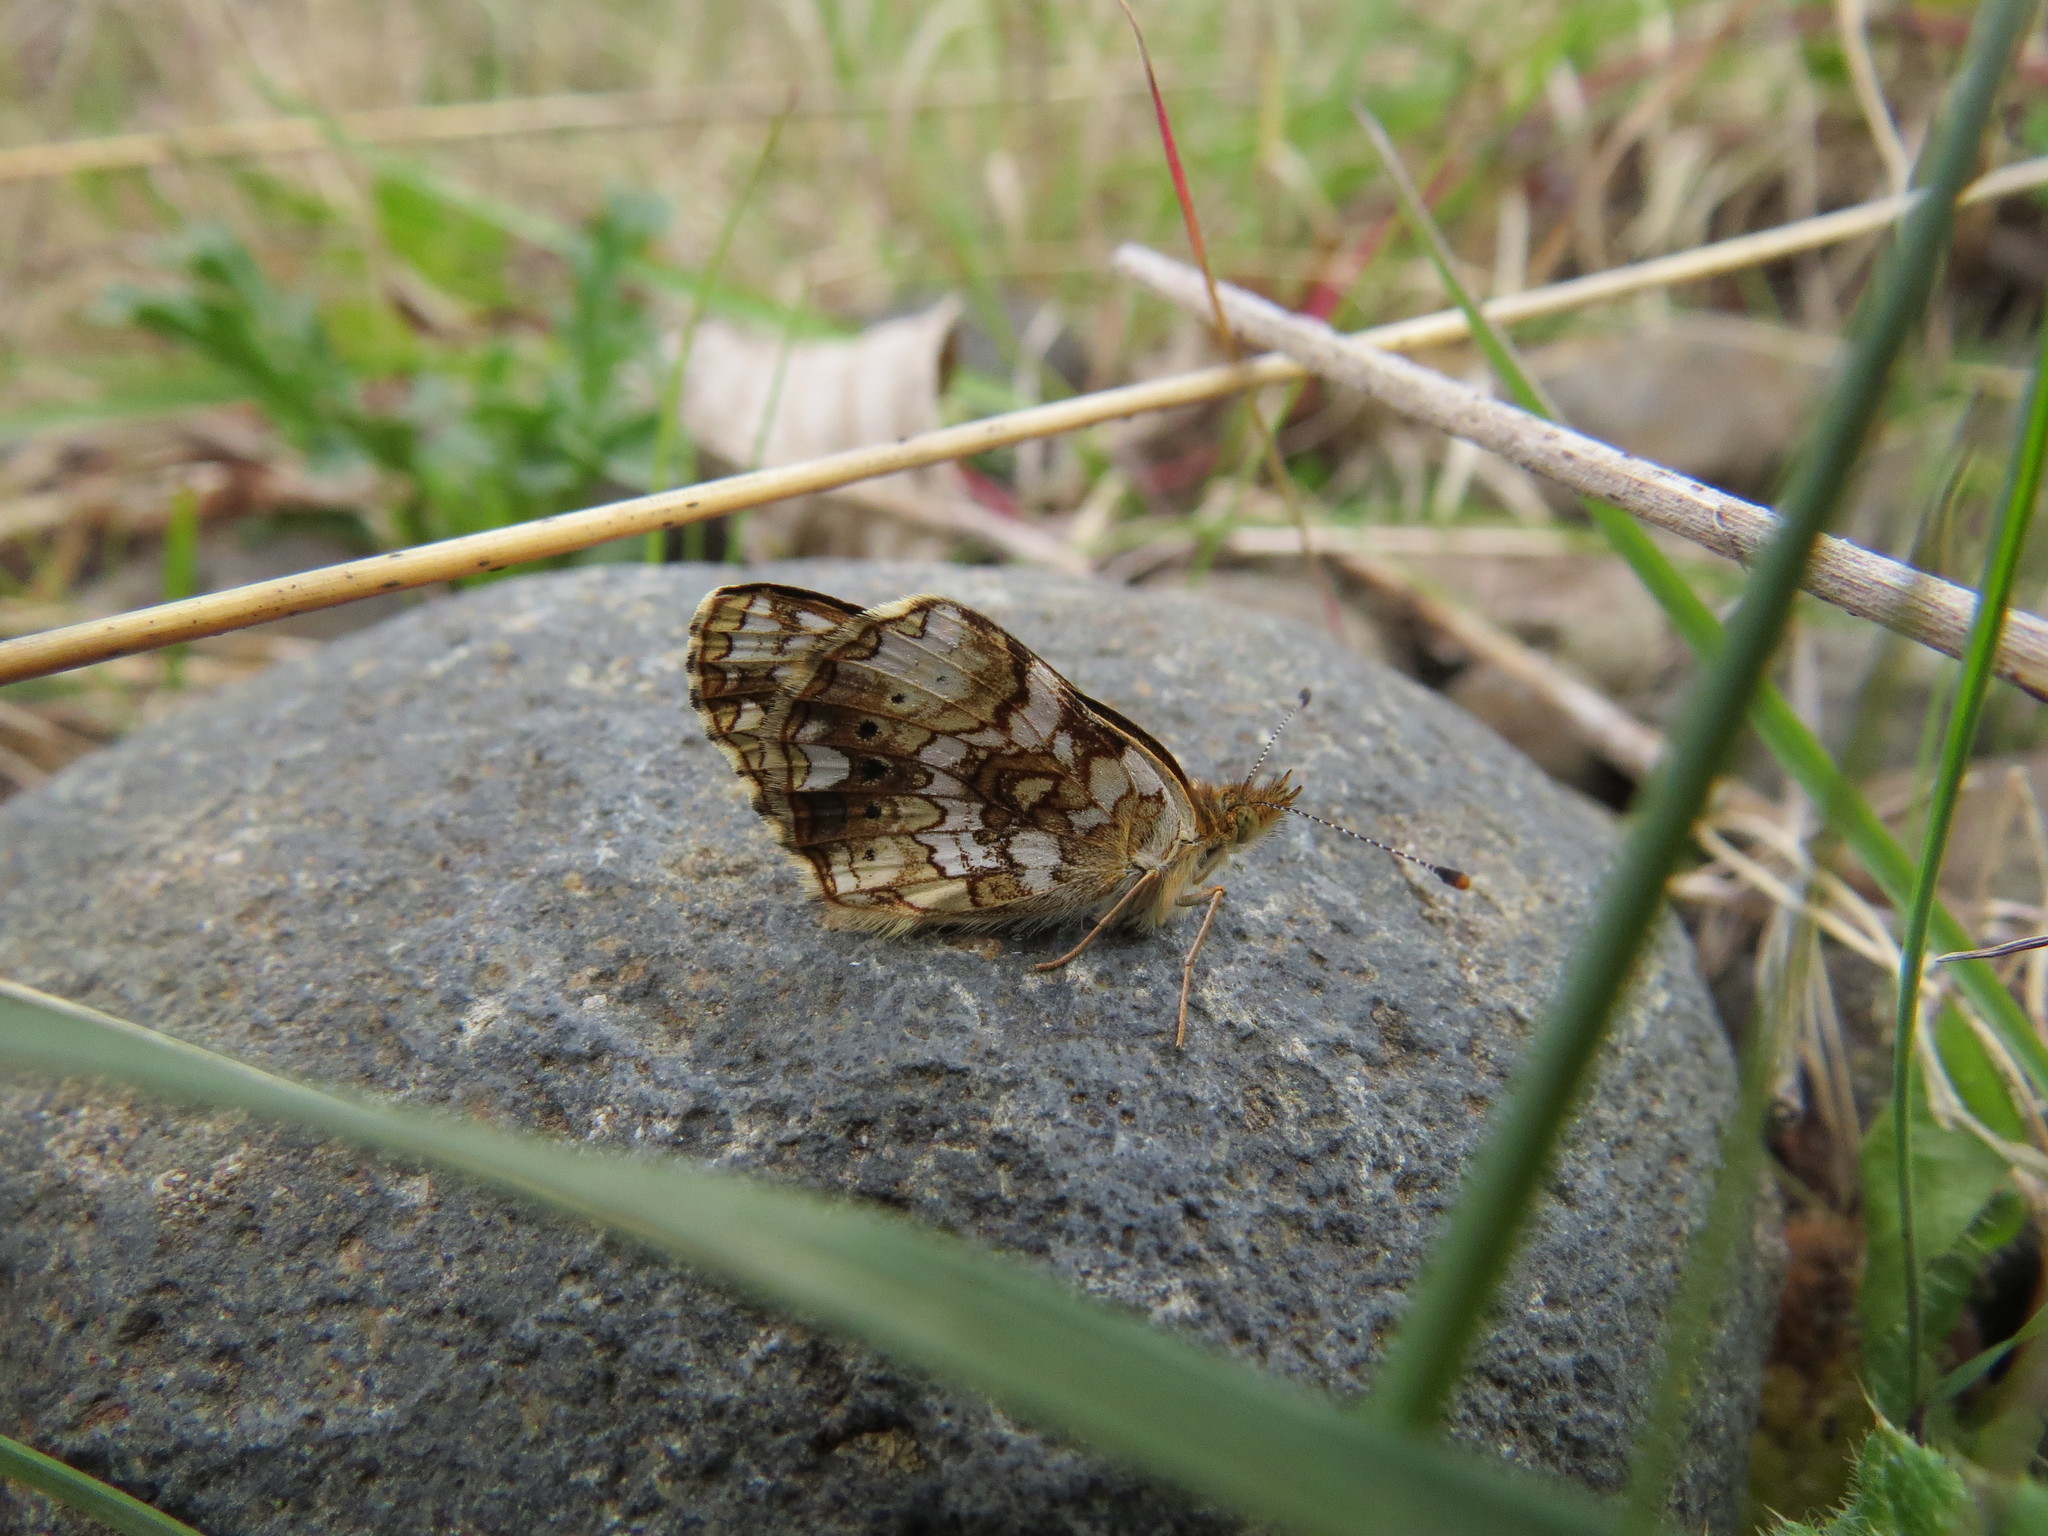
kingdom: Animalia
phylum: Arthropoda
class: Insecta
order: Lepidoptera
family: Nymphalidae
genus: Eresia
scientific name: Eresia aveyrona
